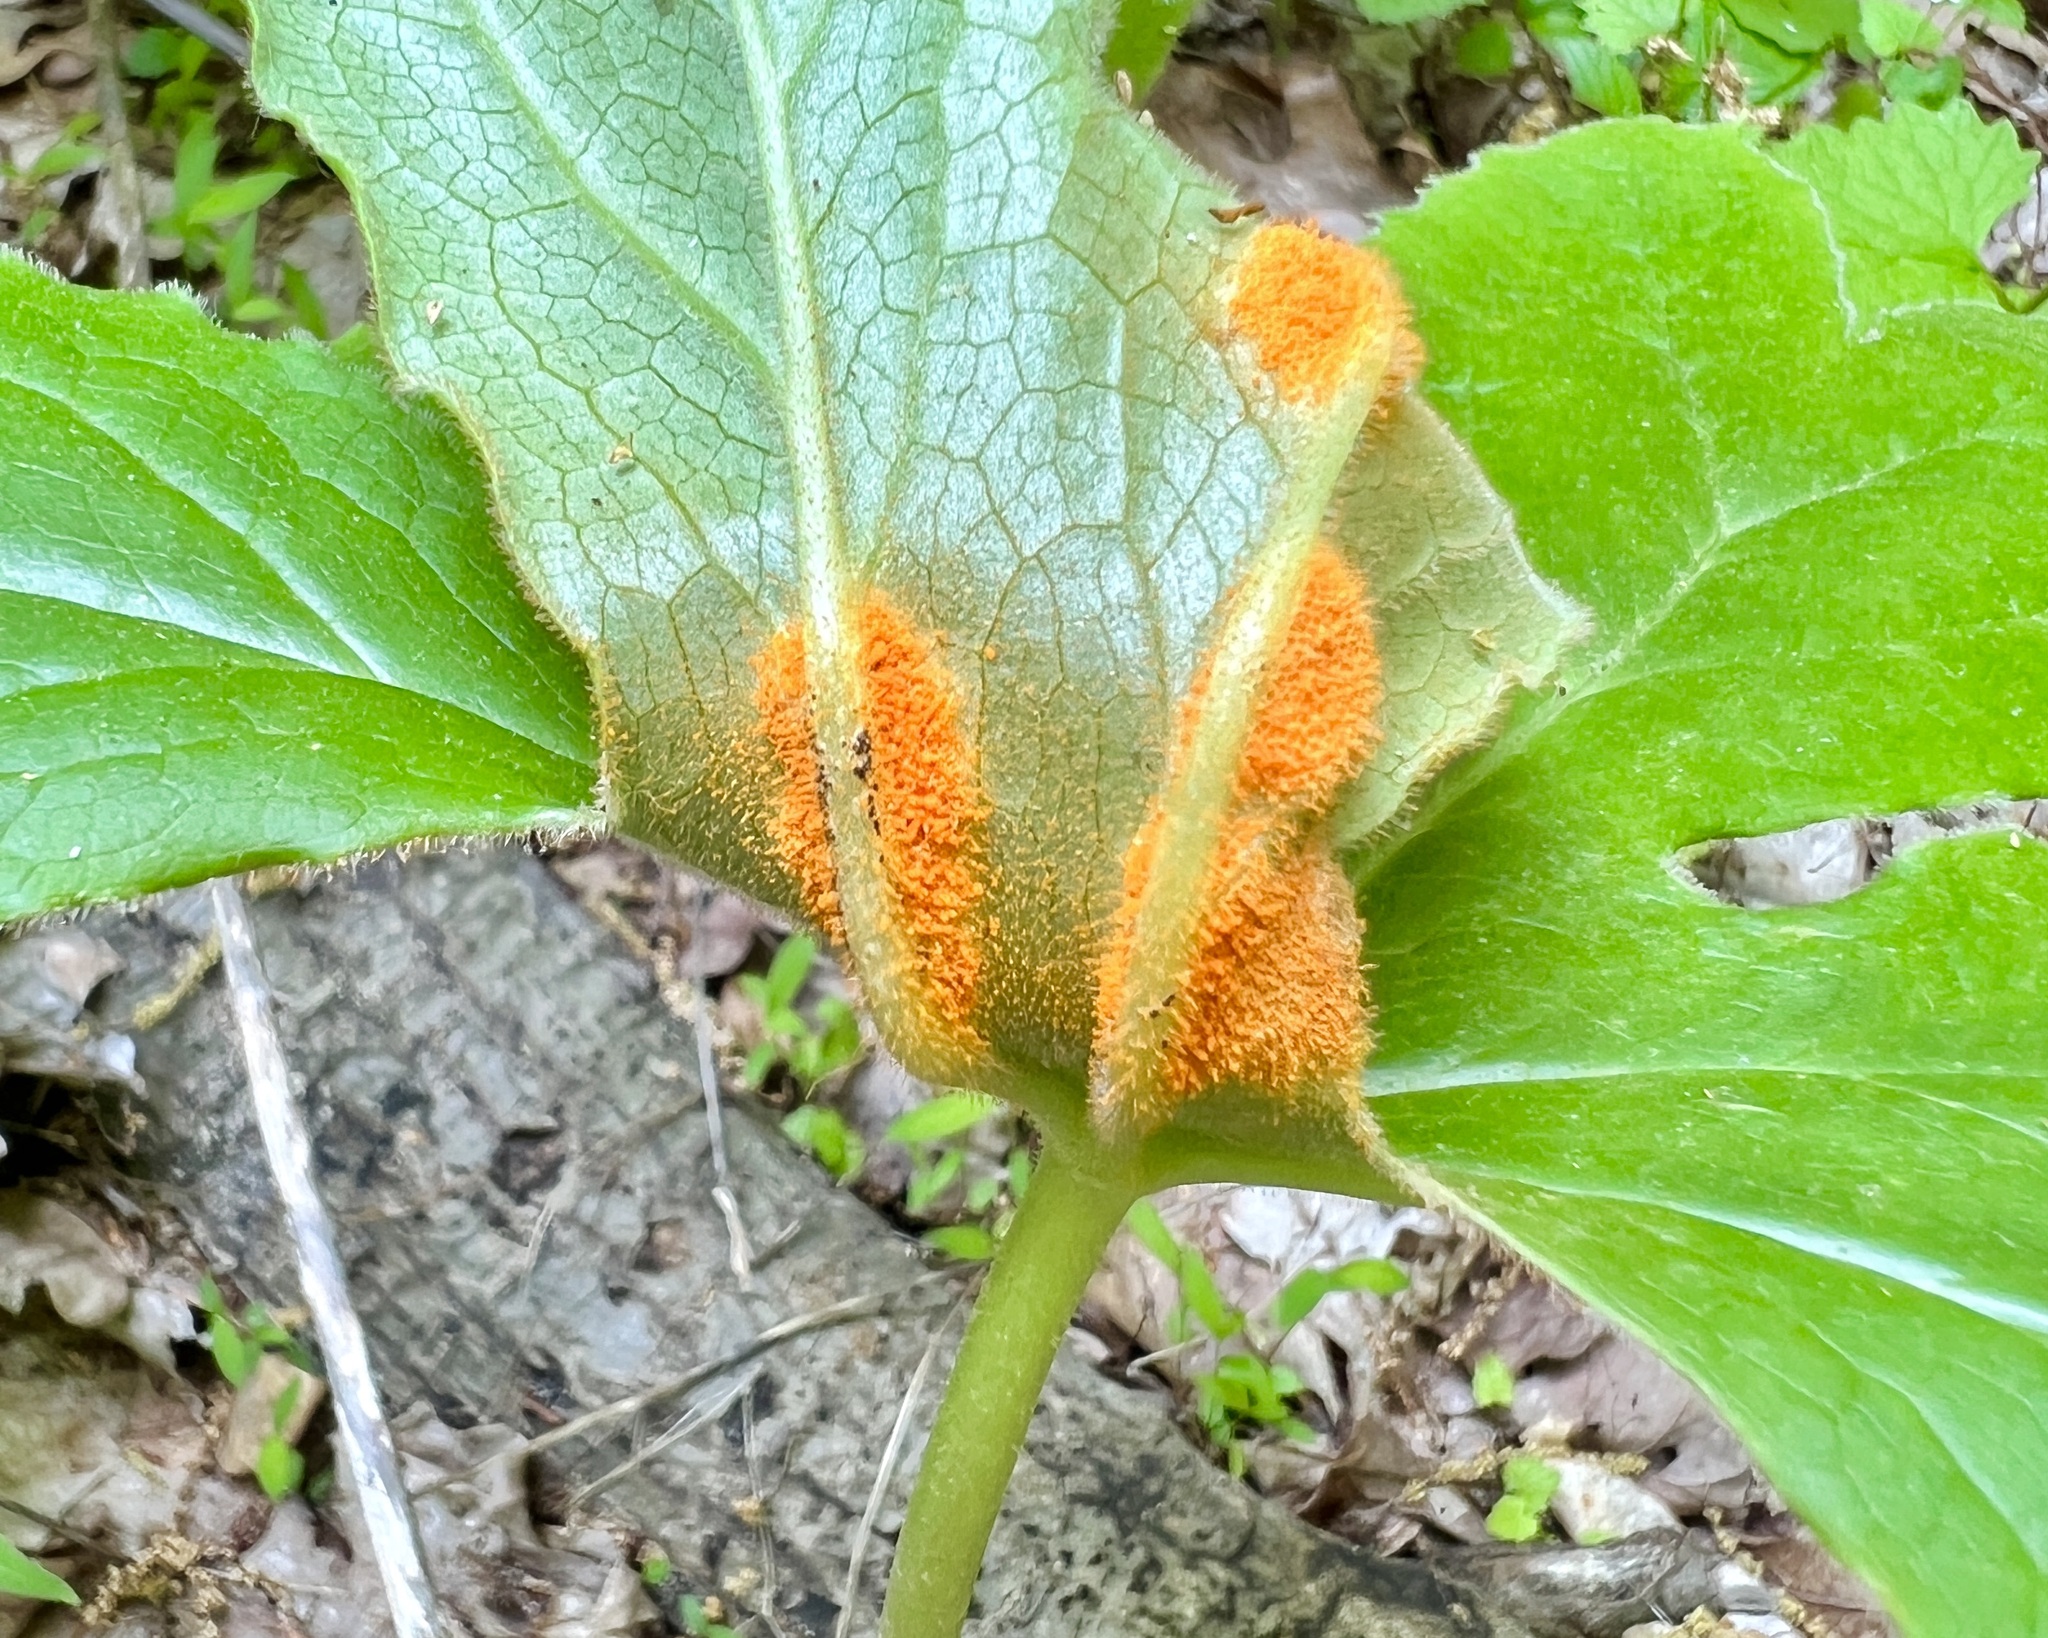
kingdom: Fungi
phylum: Basidiomycota
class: Pucciniomycetes
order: Pucciniales
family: Pucciniaceae
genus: Puccinia
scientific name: Puccinia podophylli
